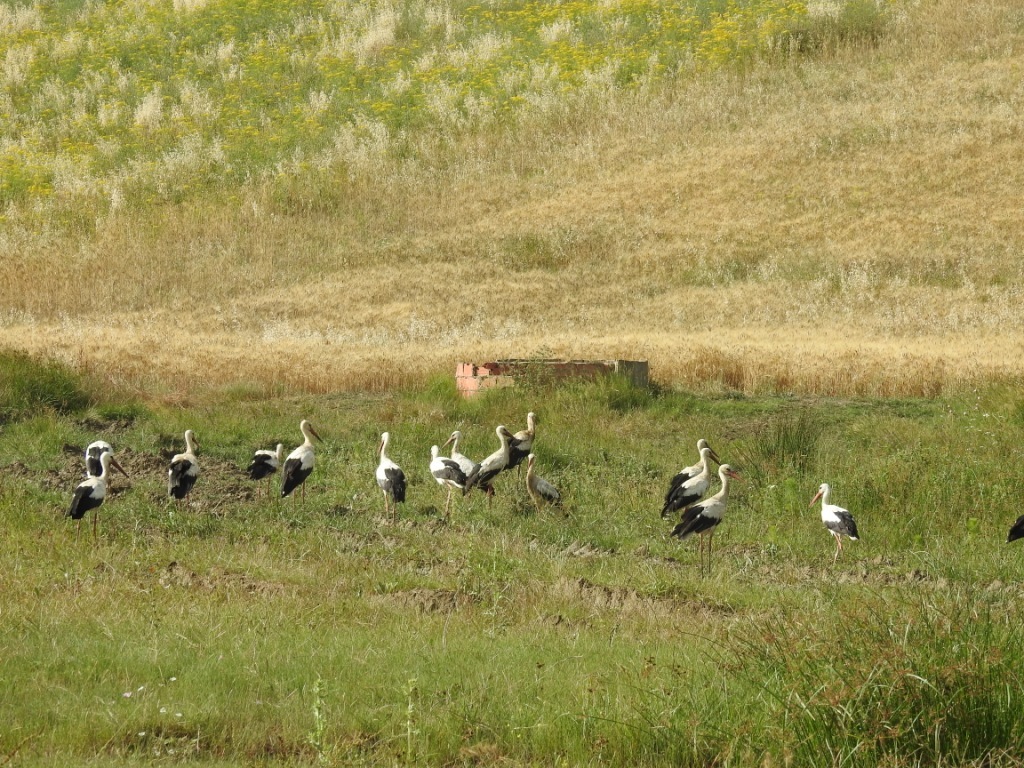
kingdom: Animalia
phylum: Chordata
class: Aves
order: Ciconiiformes
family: Ciconiidae
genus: Ciconia
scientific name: Ciconia ciconia
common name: White stork
